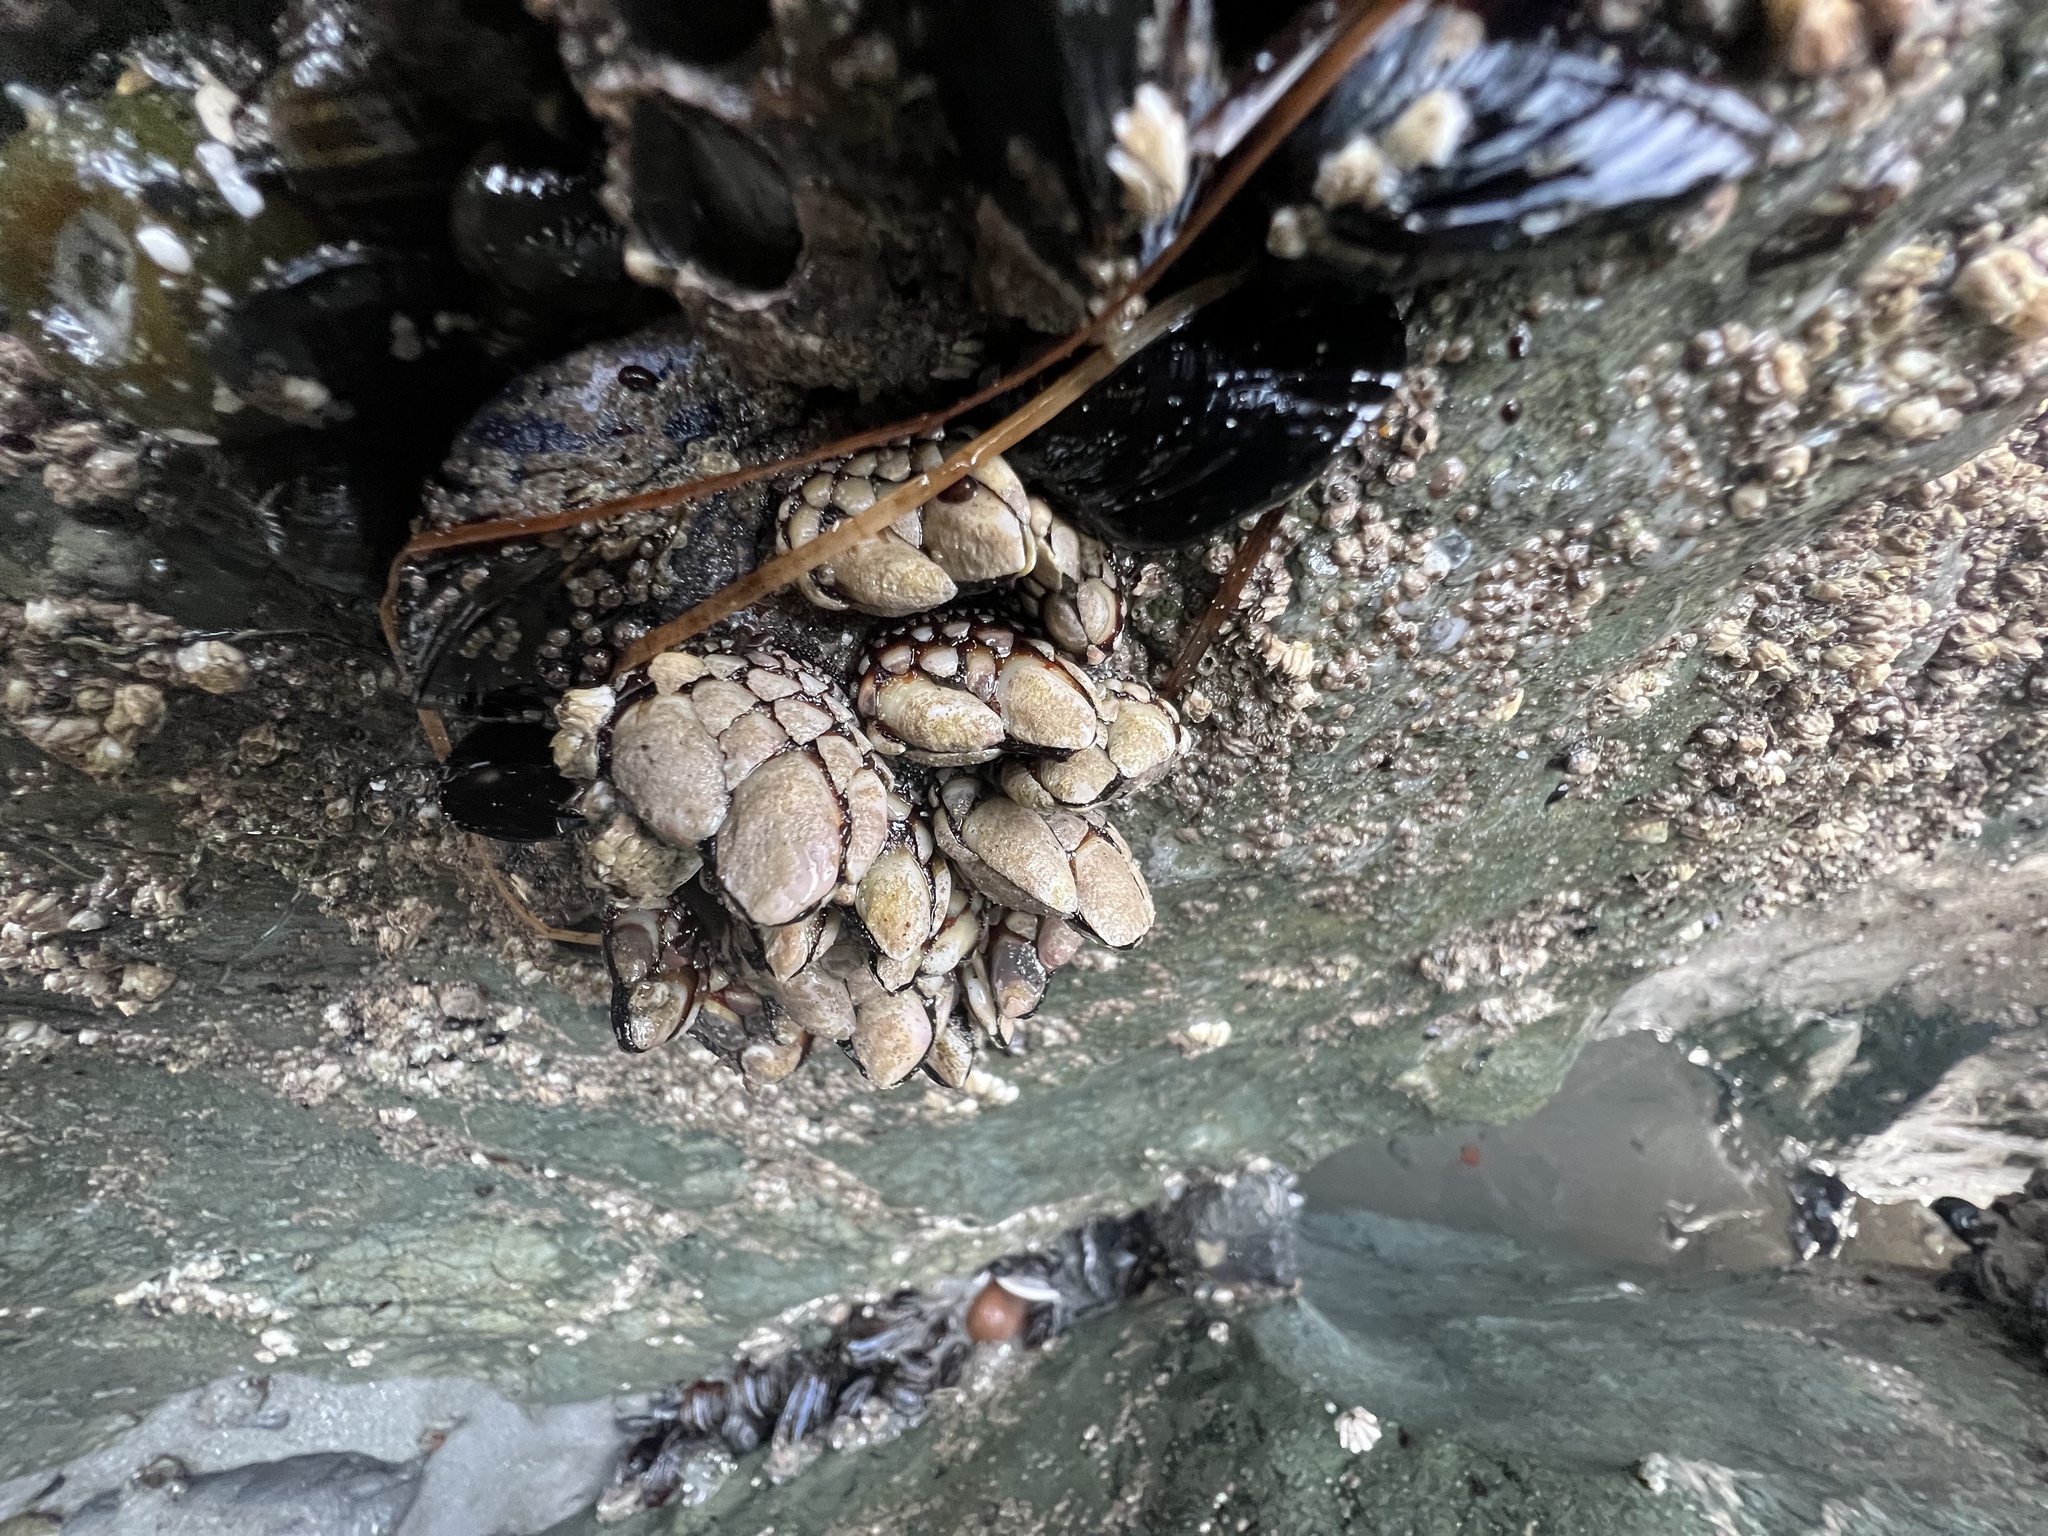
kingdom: Animalia
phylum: Arthropoda
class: Maxillopoda
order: Pedunculata
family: Pollicipedidae
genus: Pollicipes
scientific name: Pollicipes polymerus
